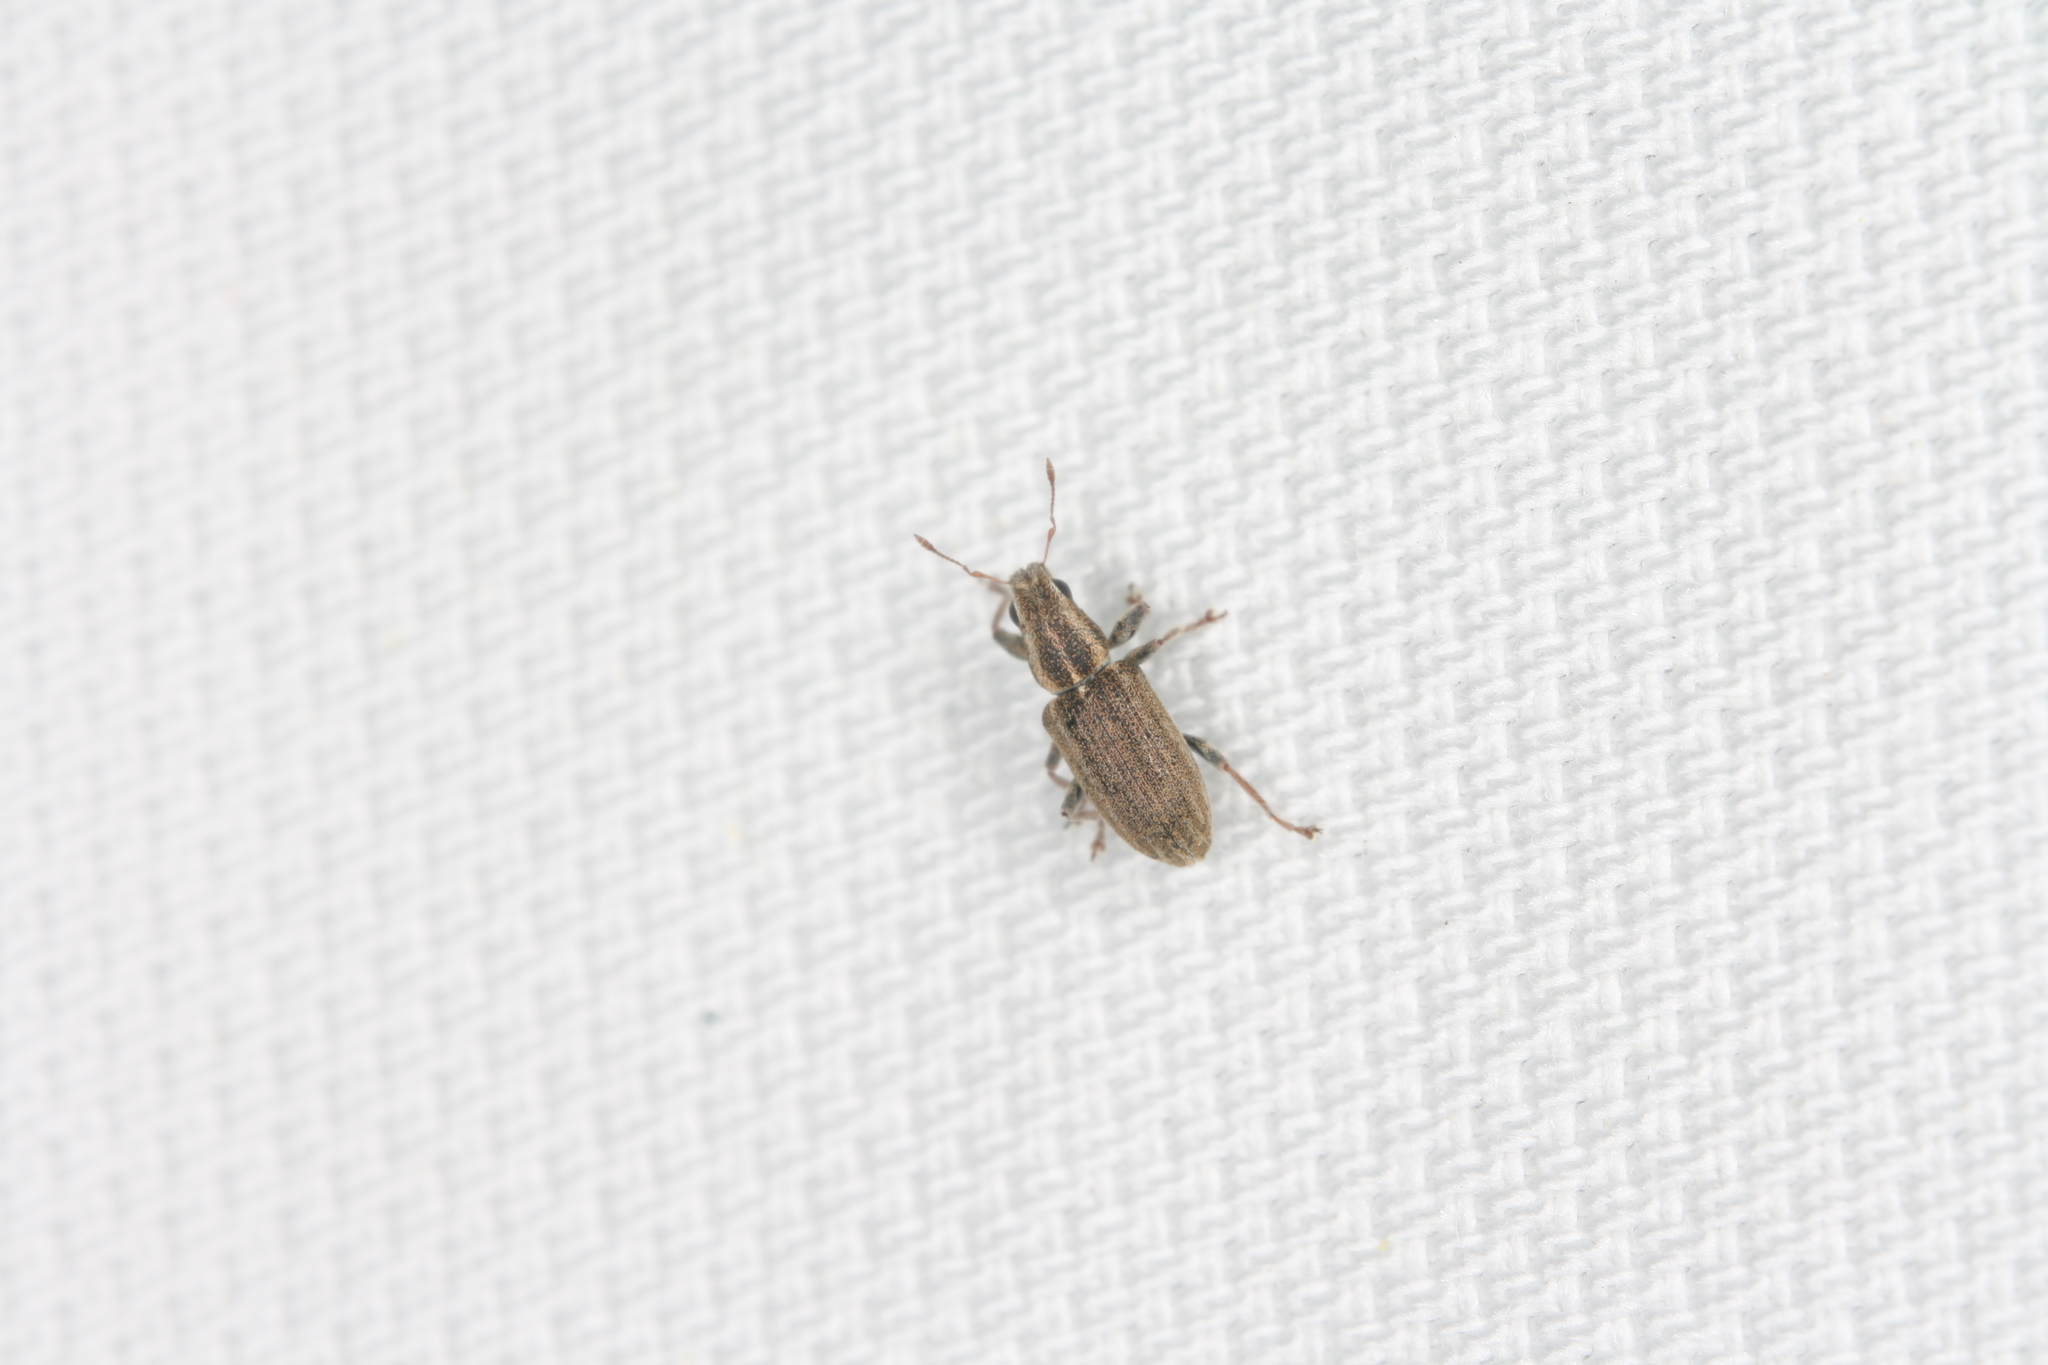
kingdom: Animalia
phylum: Arthropoda
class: Insecta
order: Coleoptera
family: Curculionidae
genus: Sitona
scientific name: Sitona lineatus
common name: Weevil
